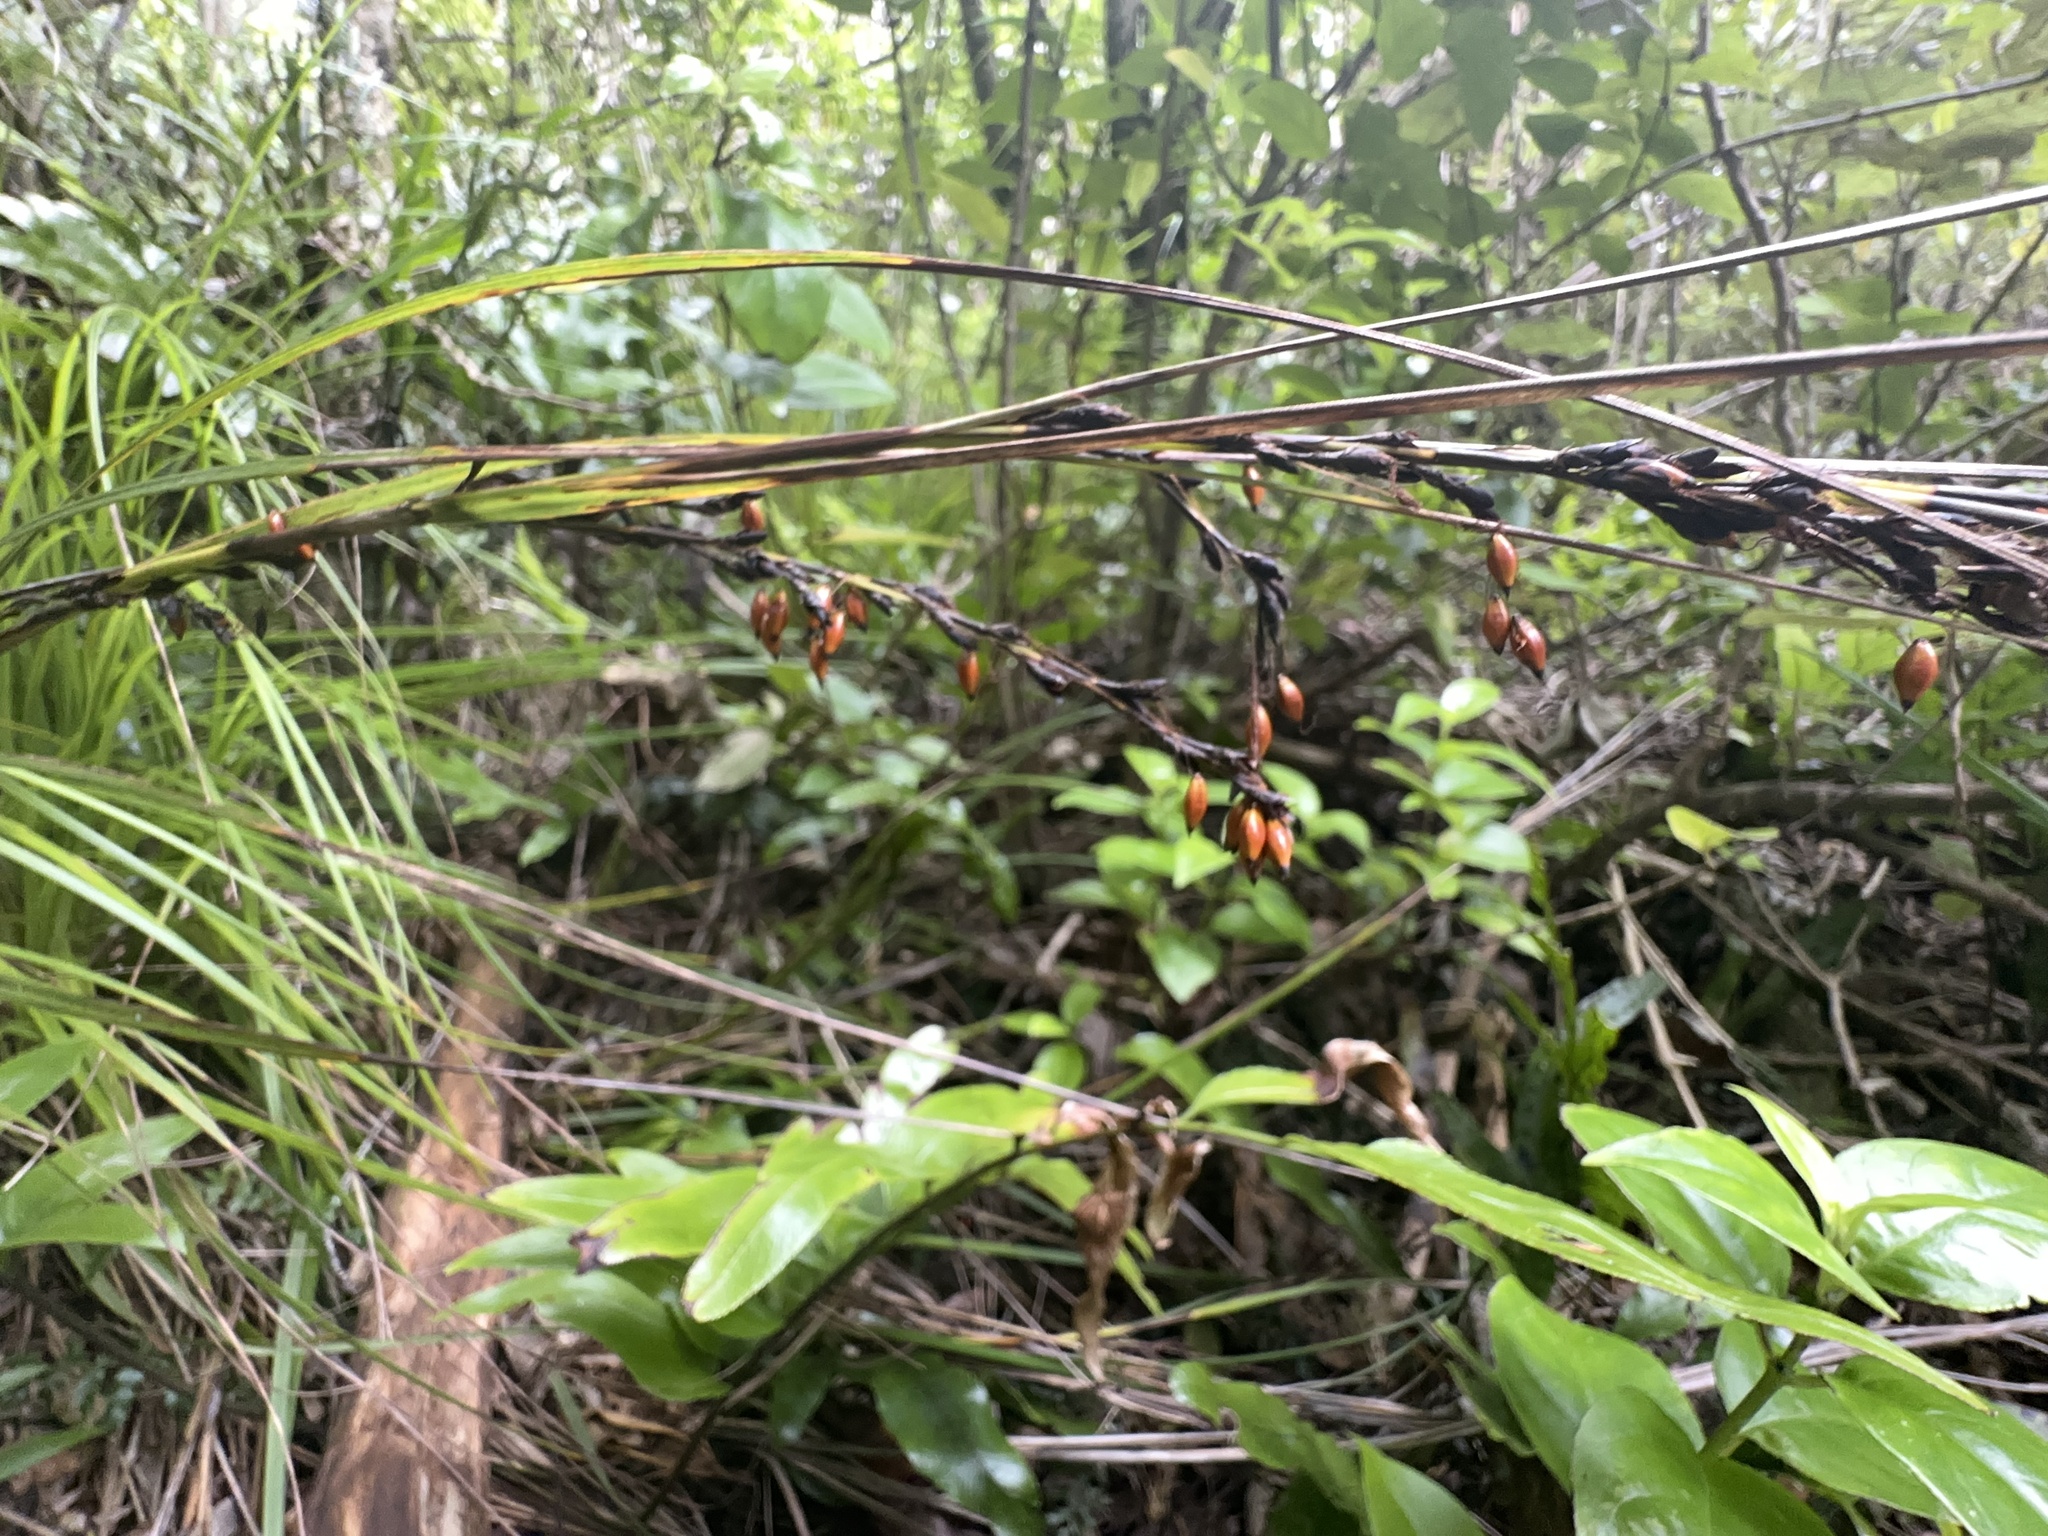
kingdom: Plantae
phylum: Tracheophyta
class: Liliopsida
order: Poales
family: Cyperaceae
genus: Gahnia
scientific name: Gahnia pauciflora
